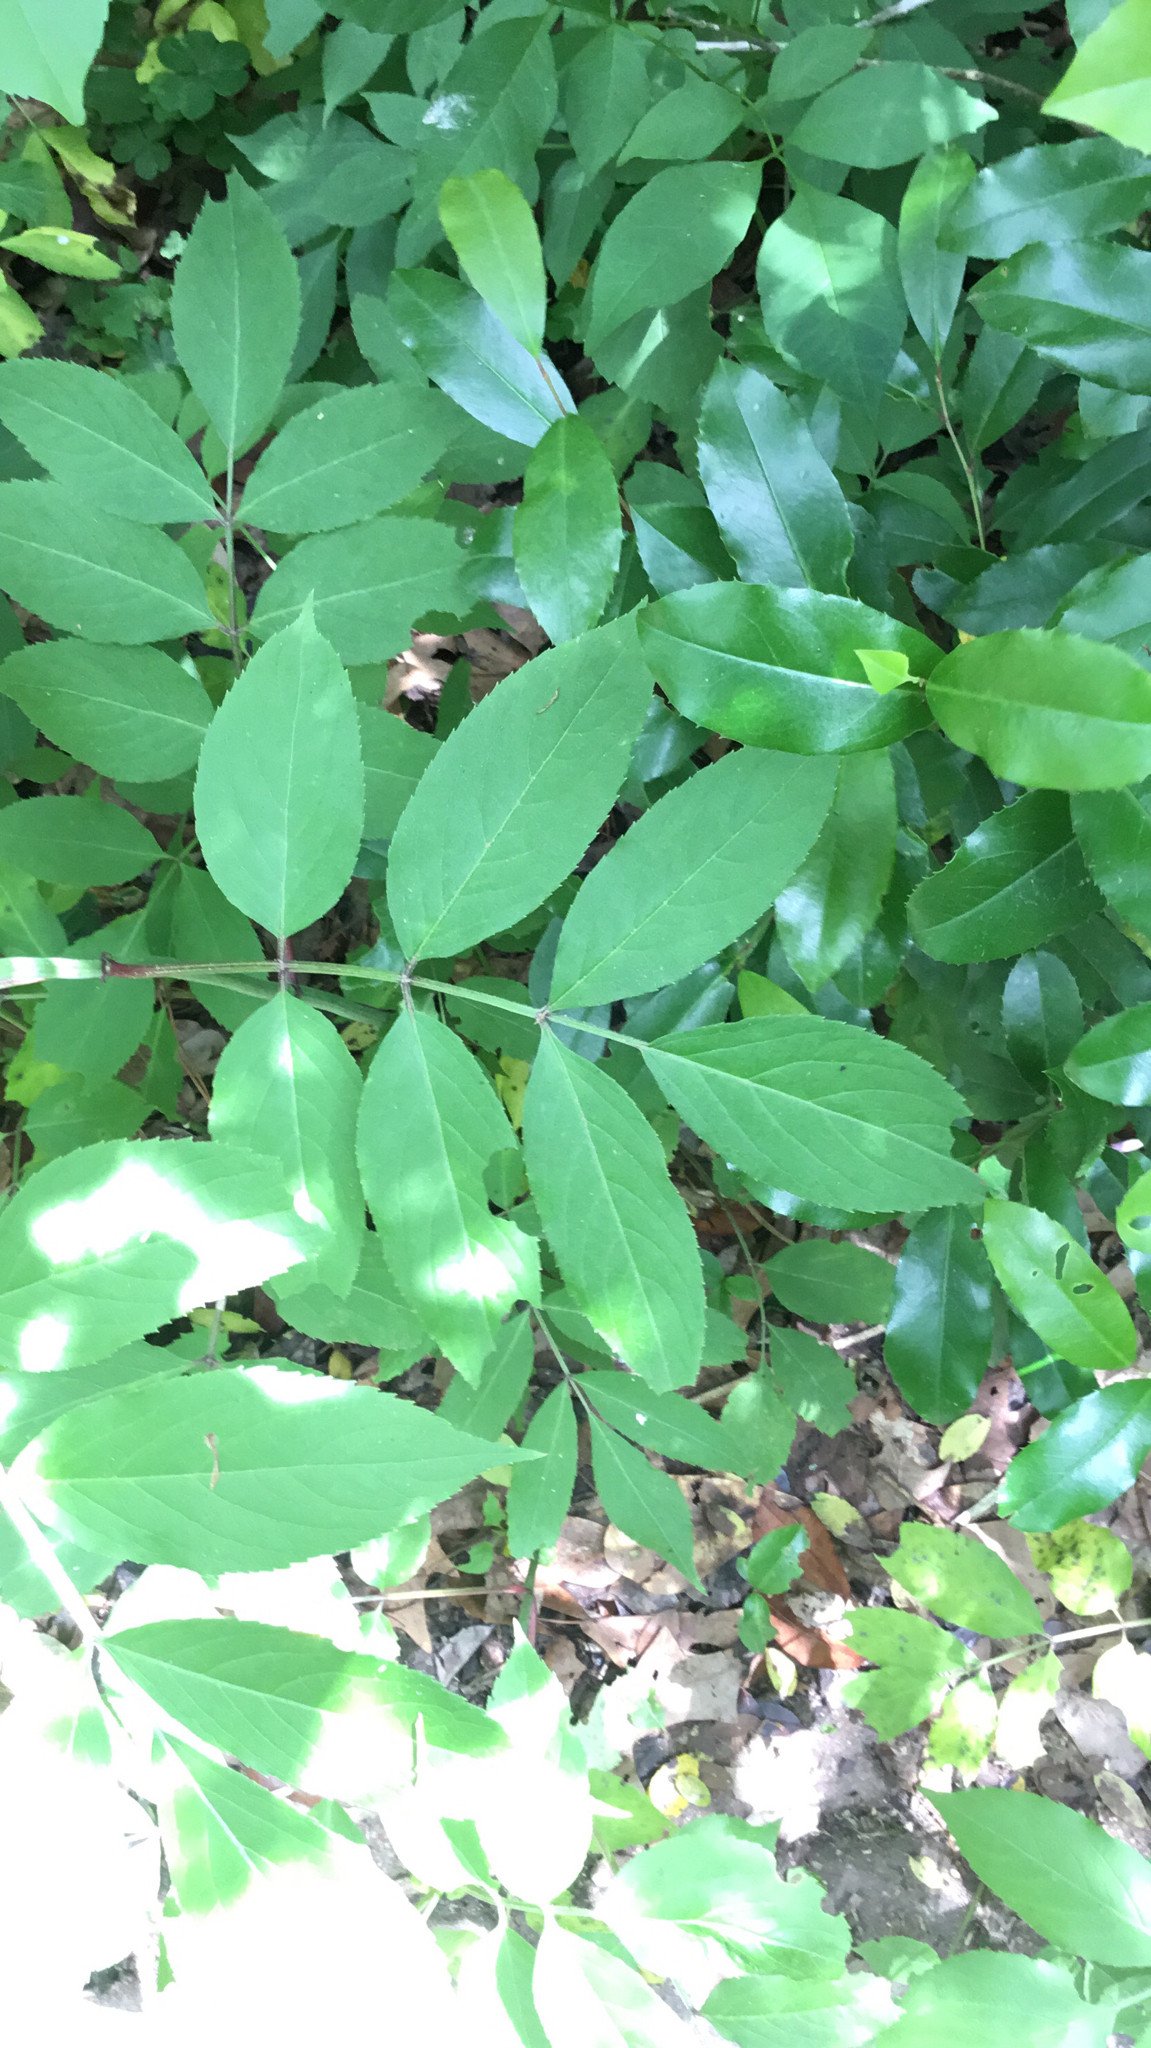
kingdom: Plantae
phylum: Tracheophyta
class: Magnoliopsida
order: Dipsacales
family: Viburnaceae
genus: Sambucus
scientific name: Sambucus canadensis
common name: American elder
